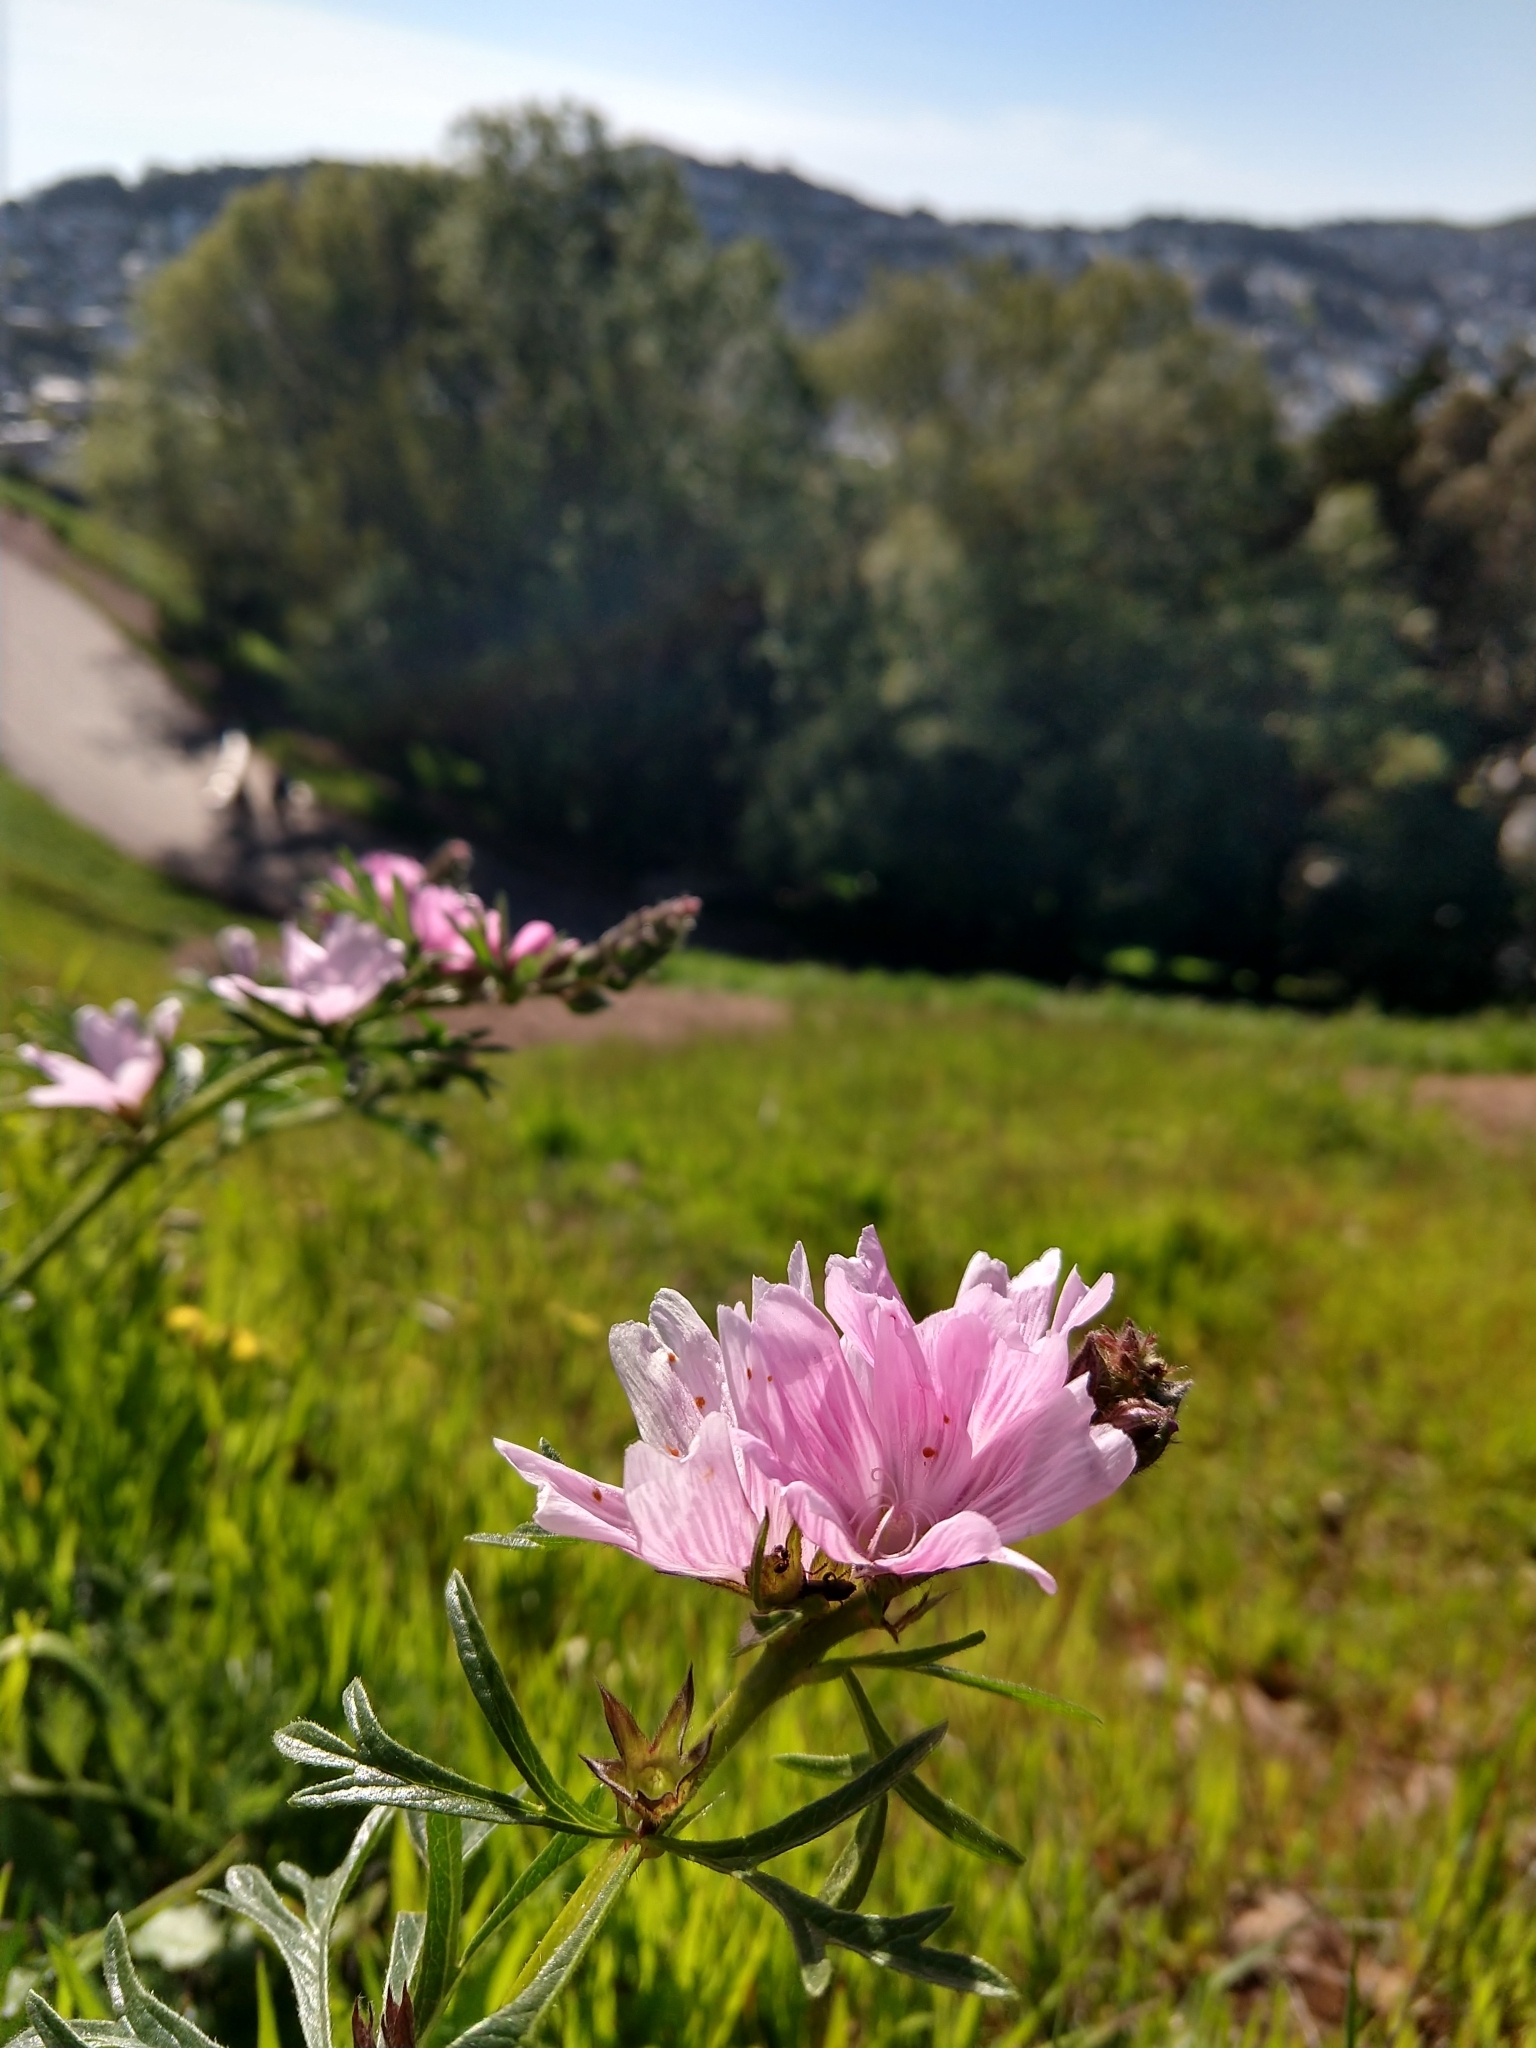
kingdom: Plantae
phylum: Tracheophyta
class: Magnoliopsida
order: Malvales
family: Malvaceae
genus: Sidalcea
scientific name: Sidalcea malviflora
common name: Greek mallow
